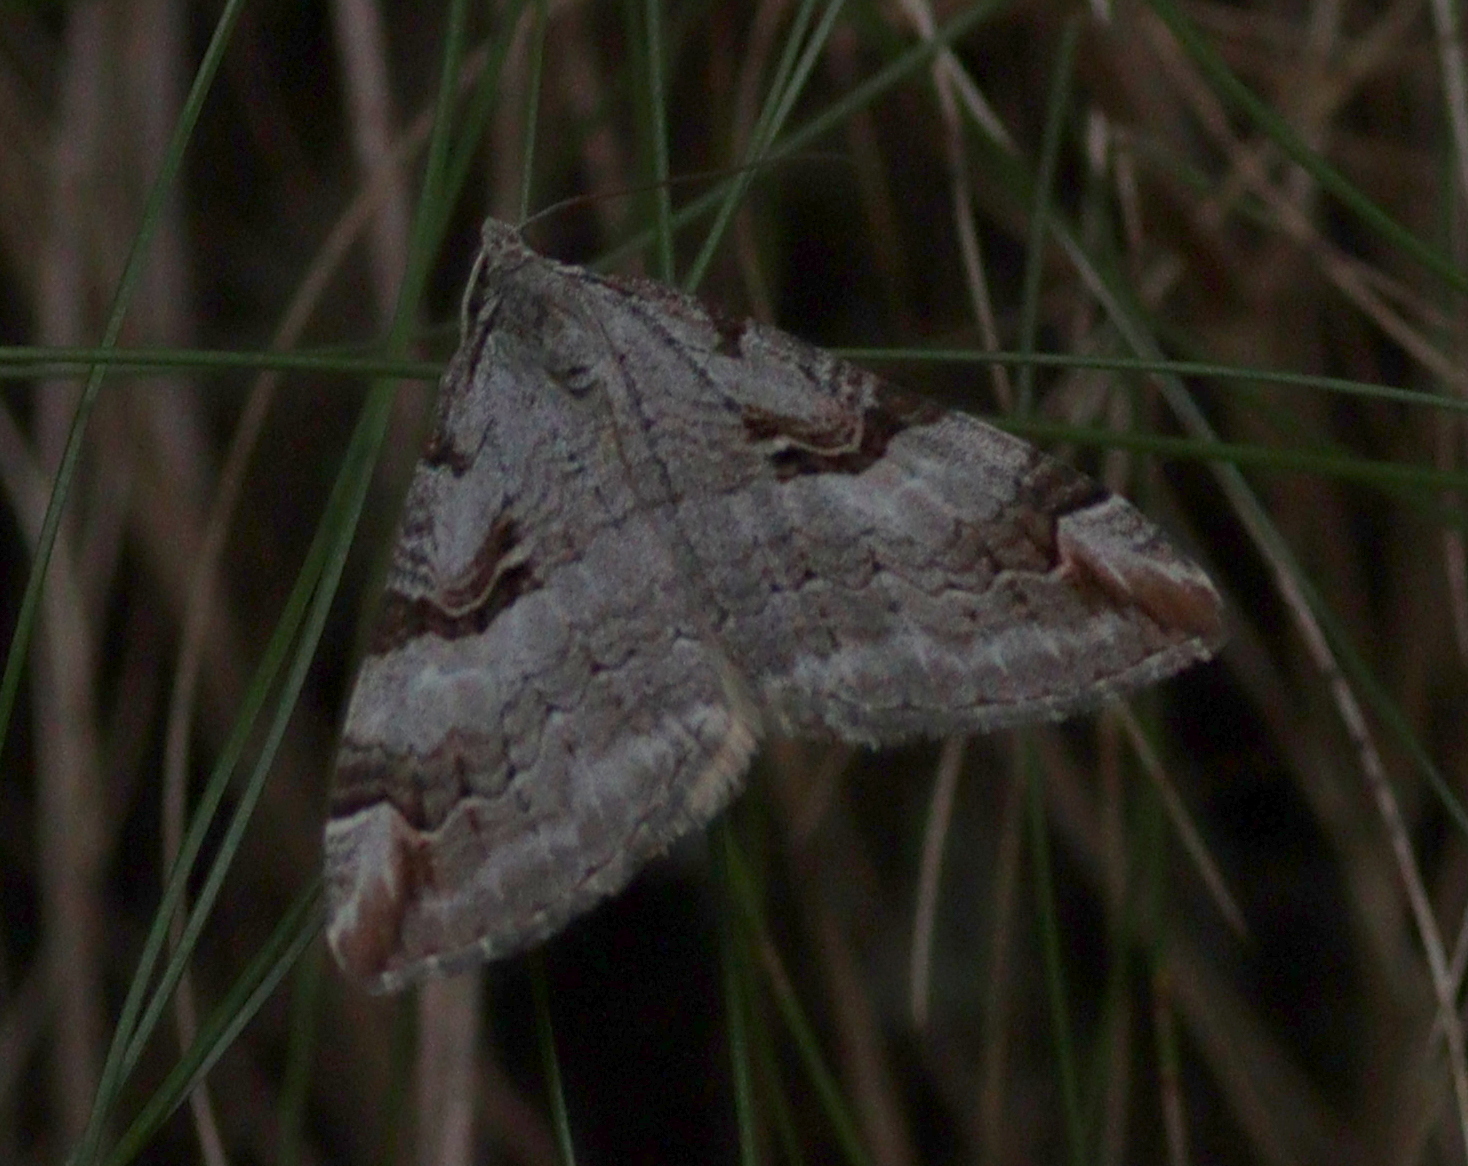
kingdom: Animalia
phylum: Arthropoda
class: Insecta
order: Lepidoptera
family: Geometridae
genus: Aplocera
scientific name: Aplocera praeformata
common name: Purple treble-bar
